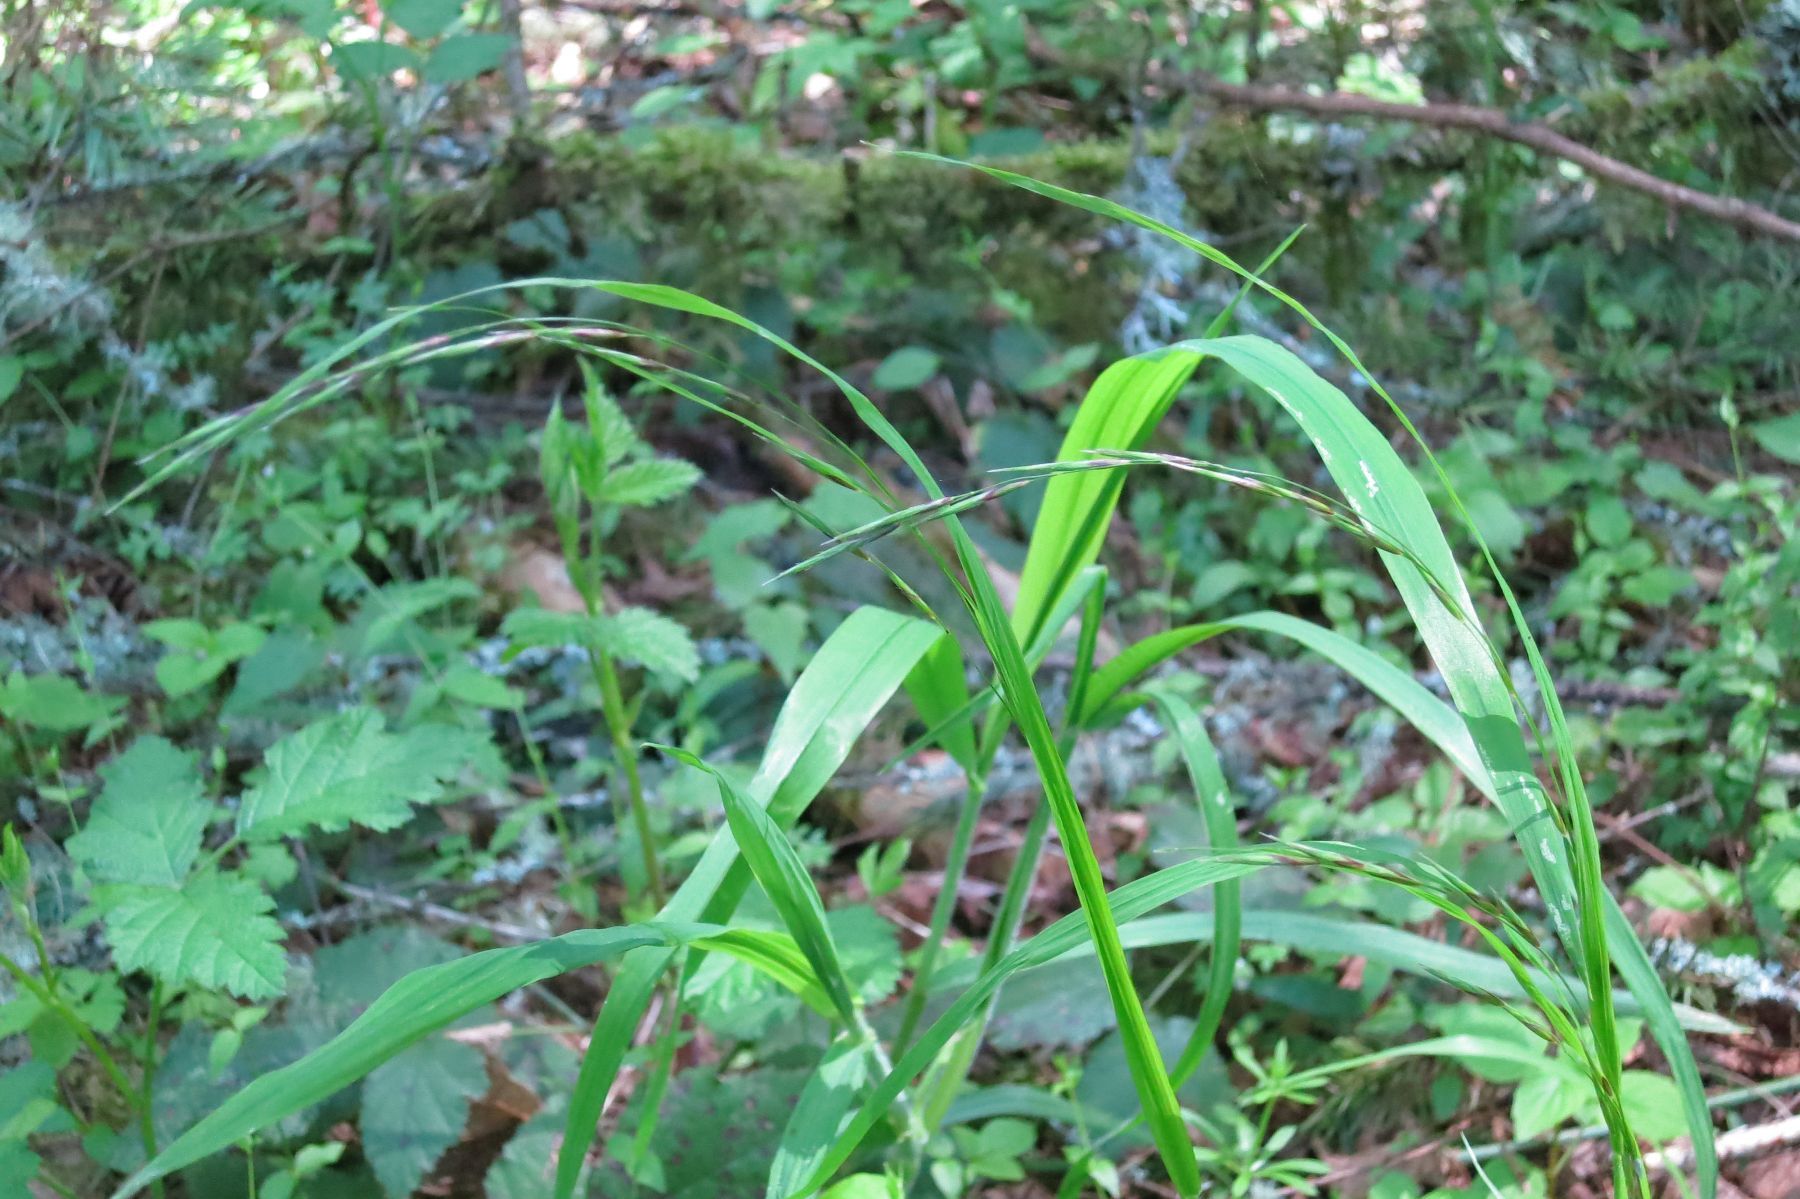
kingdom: Plantae
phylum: Tracheophyta
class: Liliopsida
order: Poales
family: Poaceae
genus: Melica
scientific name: Melica subulata
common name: Tapered oniongrass
